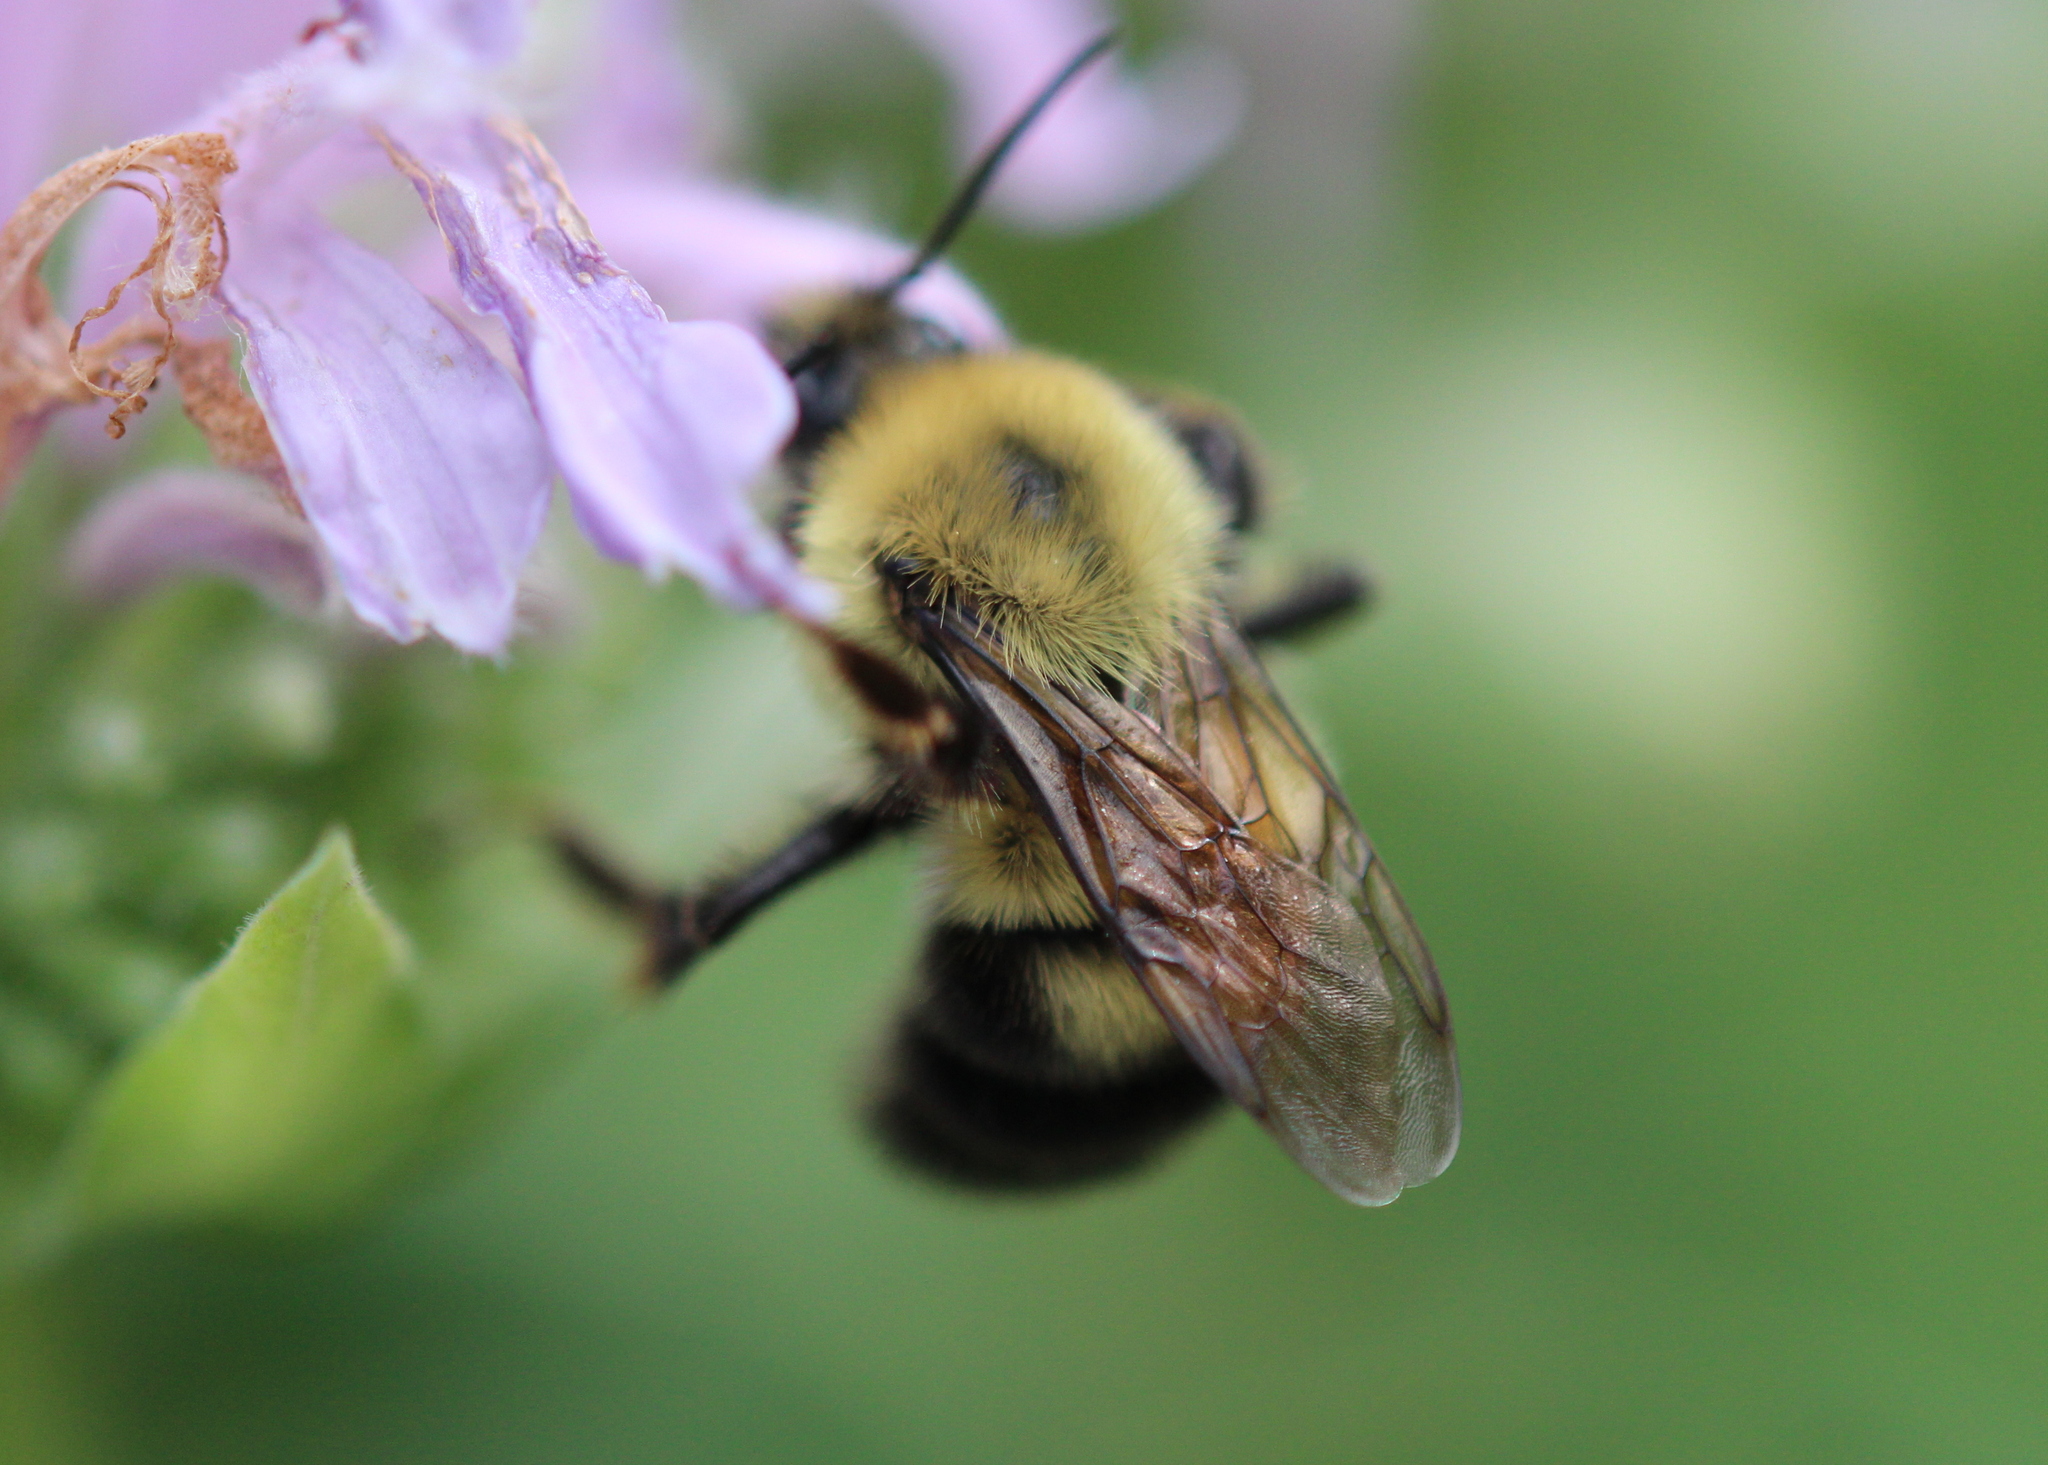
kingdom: Animalia
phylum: Arthropoda
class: Insecta
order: Hymenoptera
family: Apidae
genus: Bombus
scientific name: Bombus bimaculatus
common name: Two-spotted bumble bee
